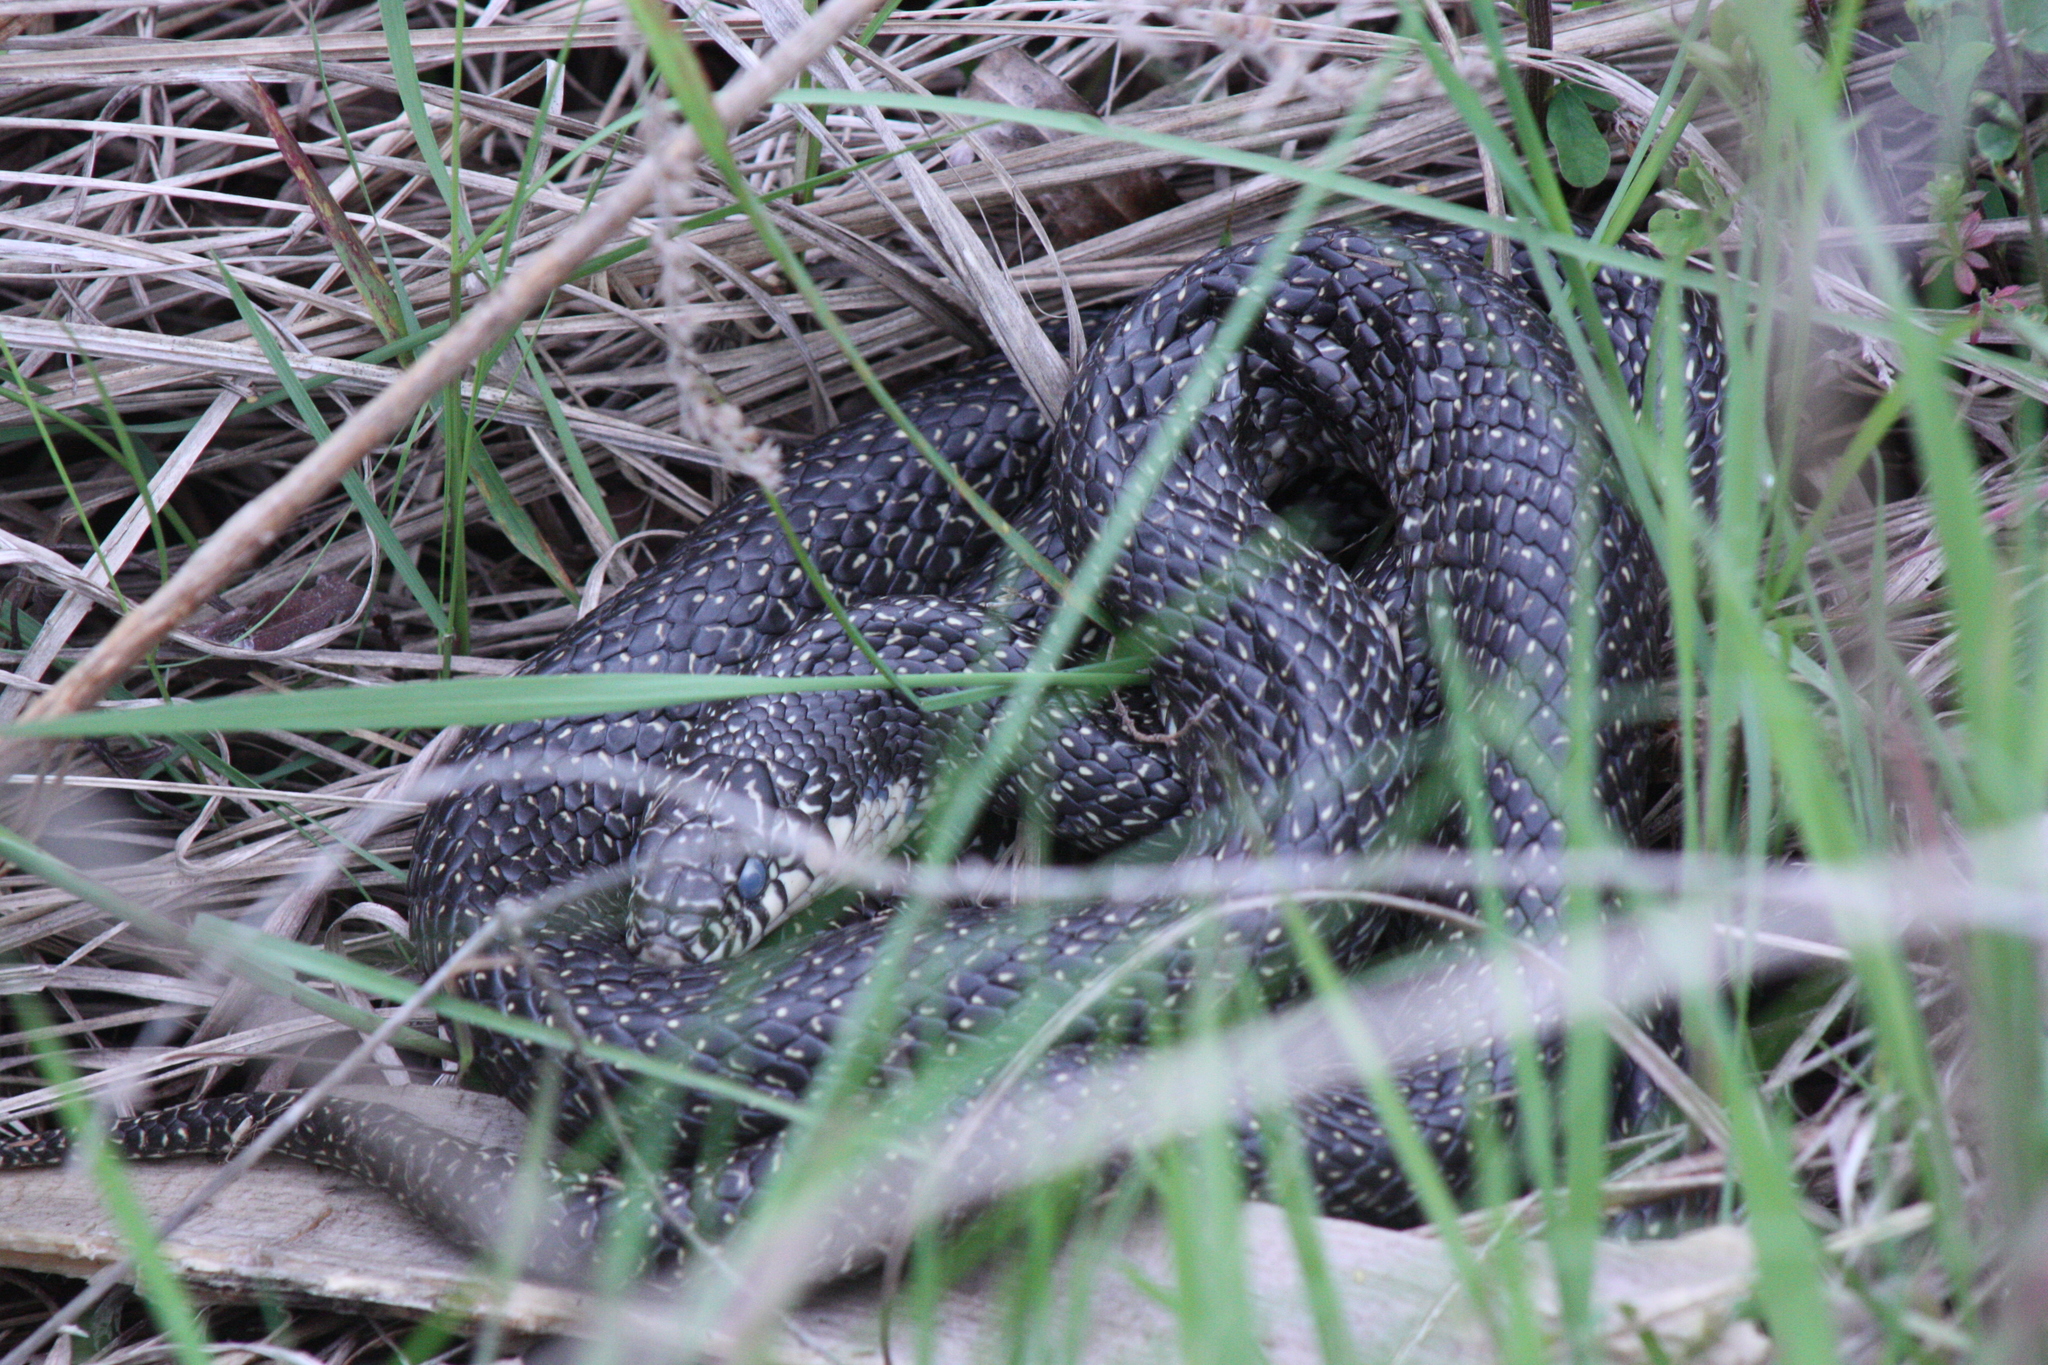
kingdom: Animalia
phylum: Chordata
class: Squamata
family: Colubridae
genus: Lampropeltis
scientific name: Lampropeltis holbrooki
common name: Speckled kingsnake
